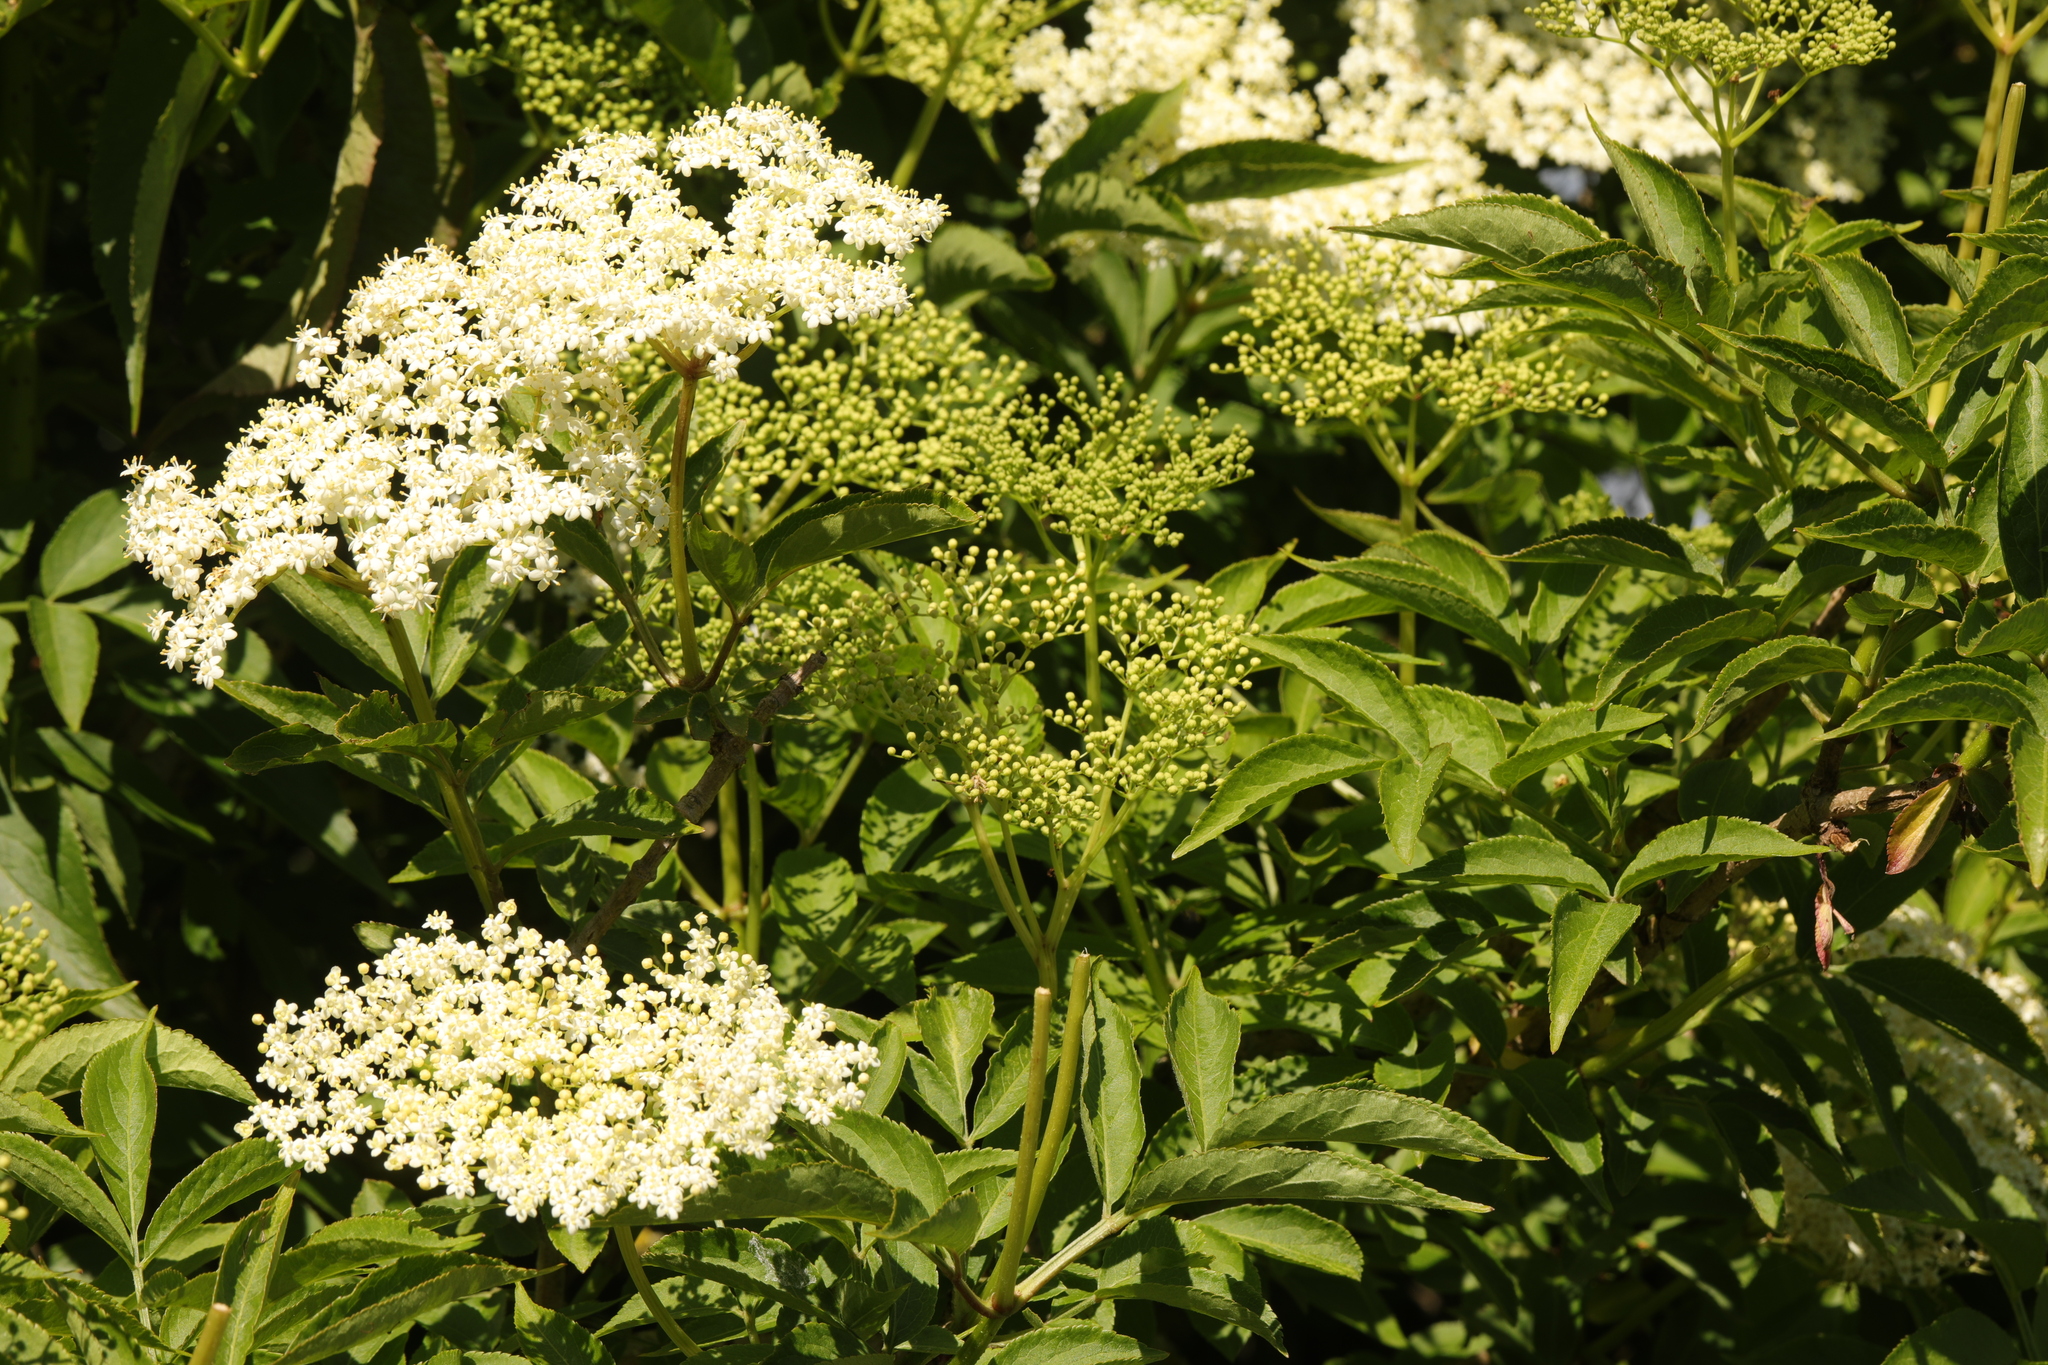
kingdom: Plantae
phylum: Tracheophyta
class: Magnoliopsida
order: Dipsacales
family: Viburnaceae
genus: Sambucus
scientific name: Sambucus nigra
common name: Elder
